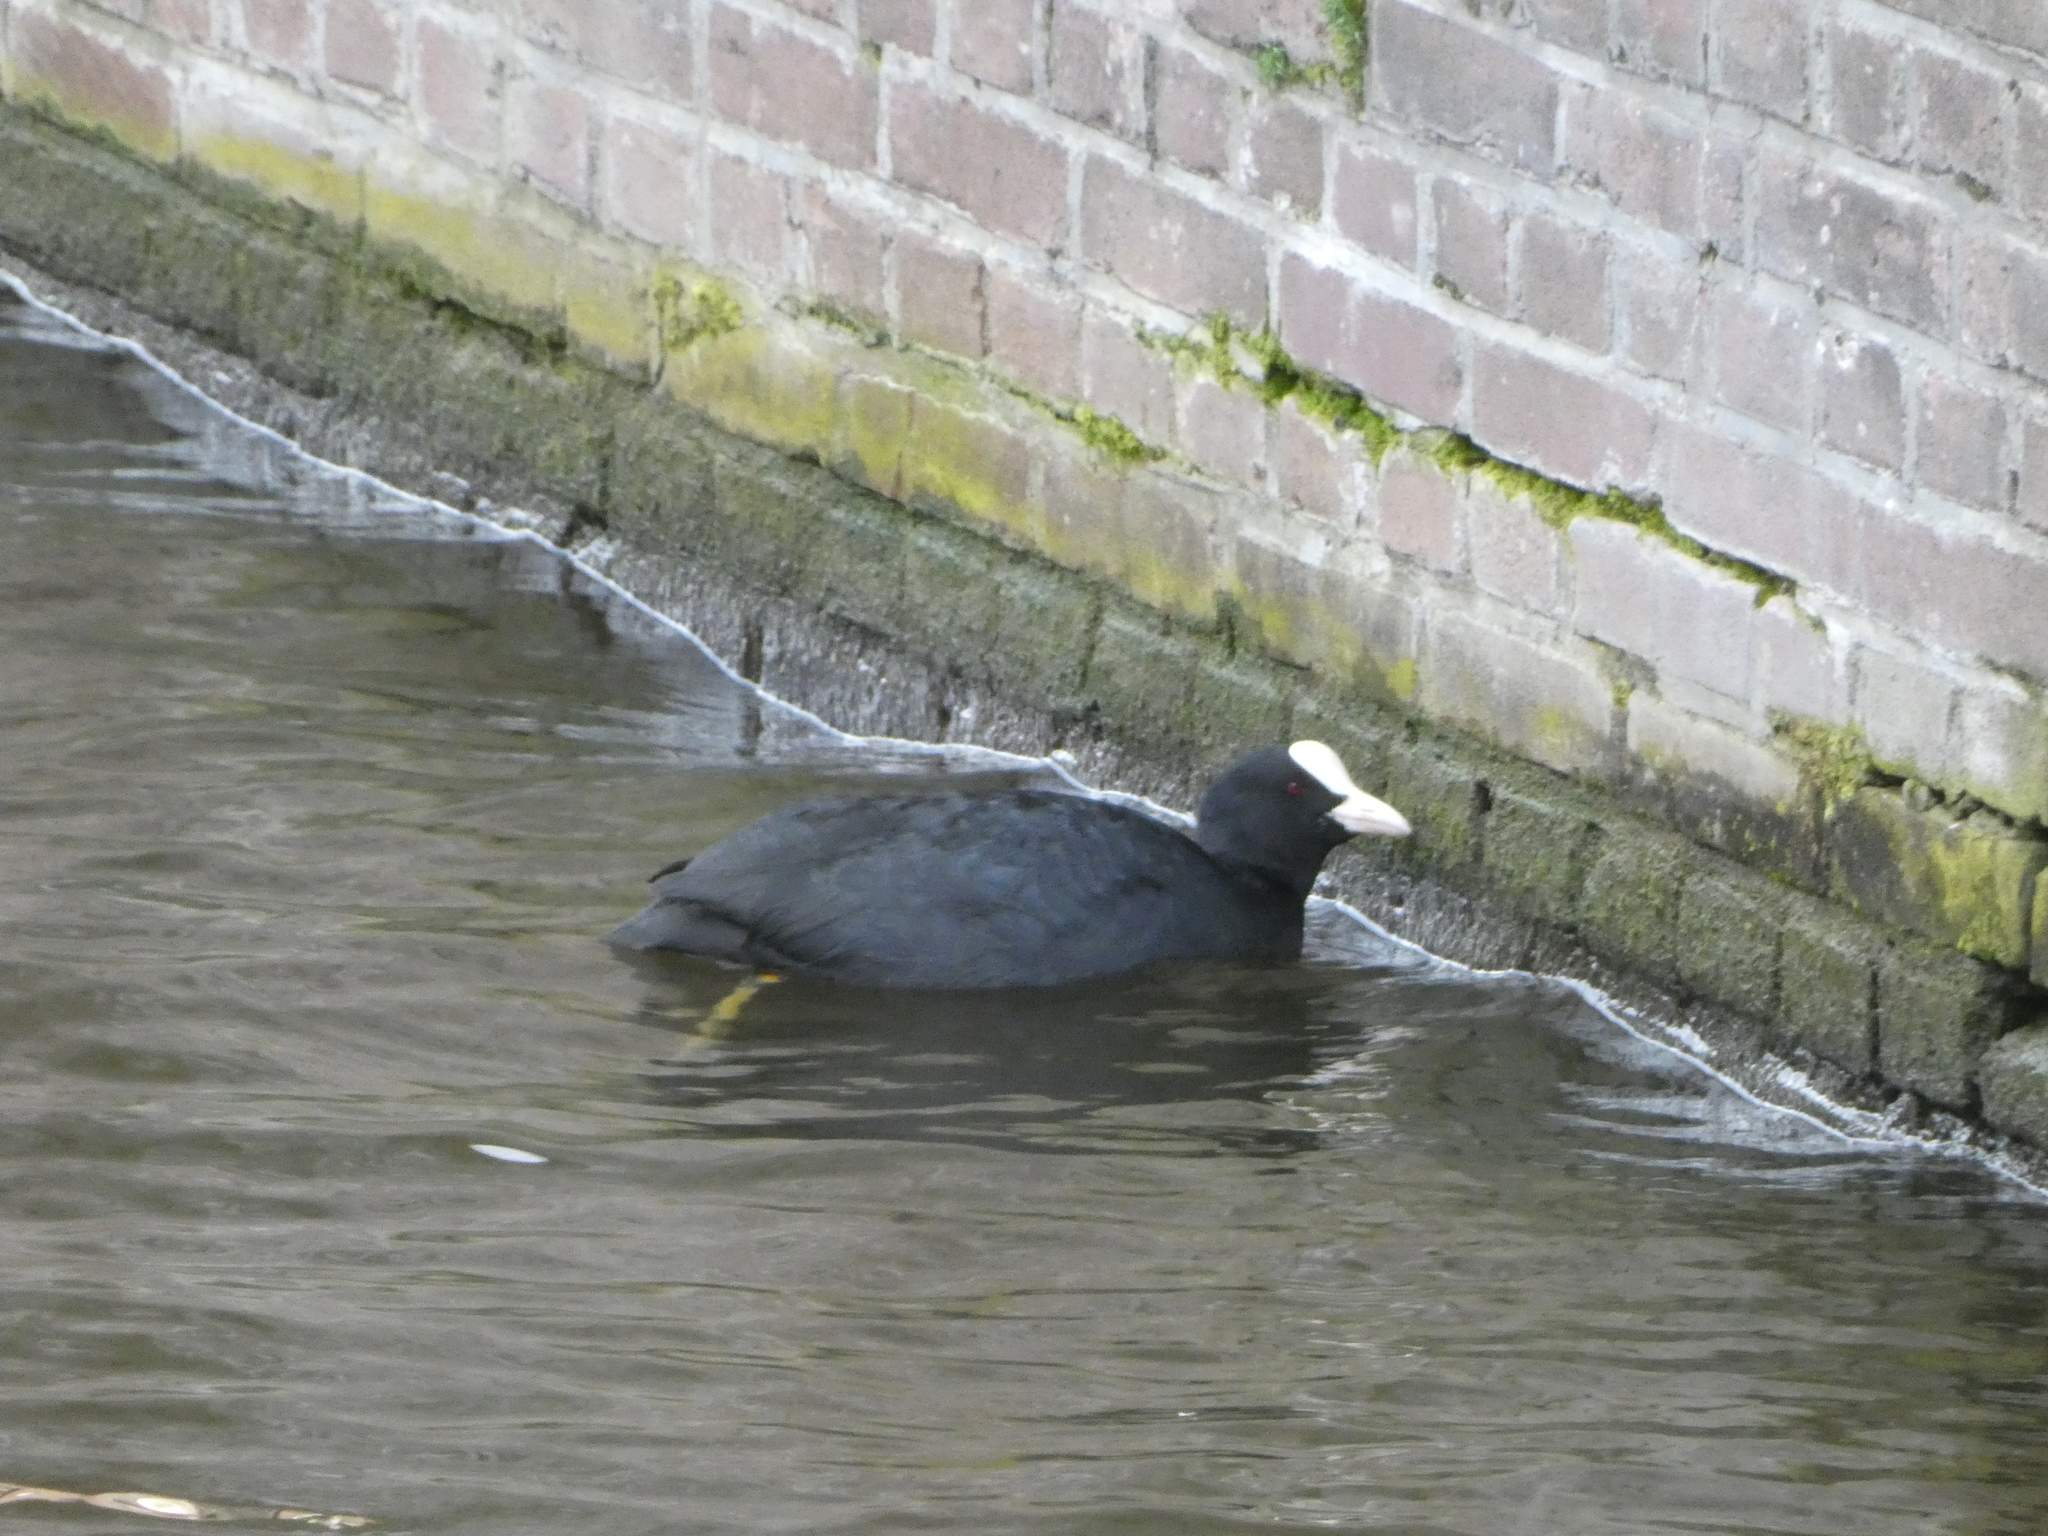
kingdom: Animalia
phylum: Chordata
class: Aves
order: Gruiformes
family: Rallidae
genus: Fulica
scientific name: Fulica atra
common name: Eurasian coot
